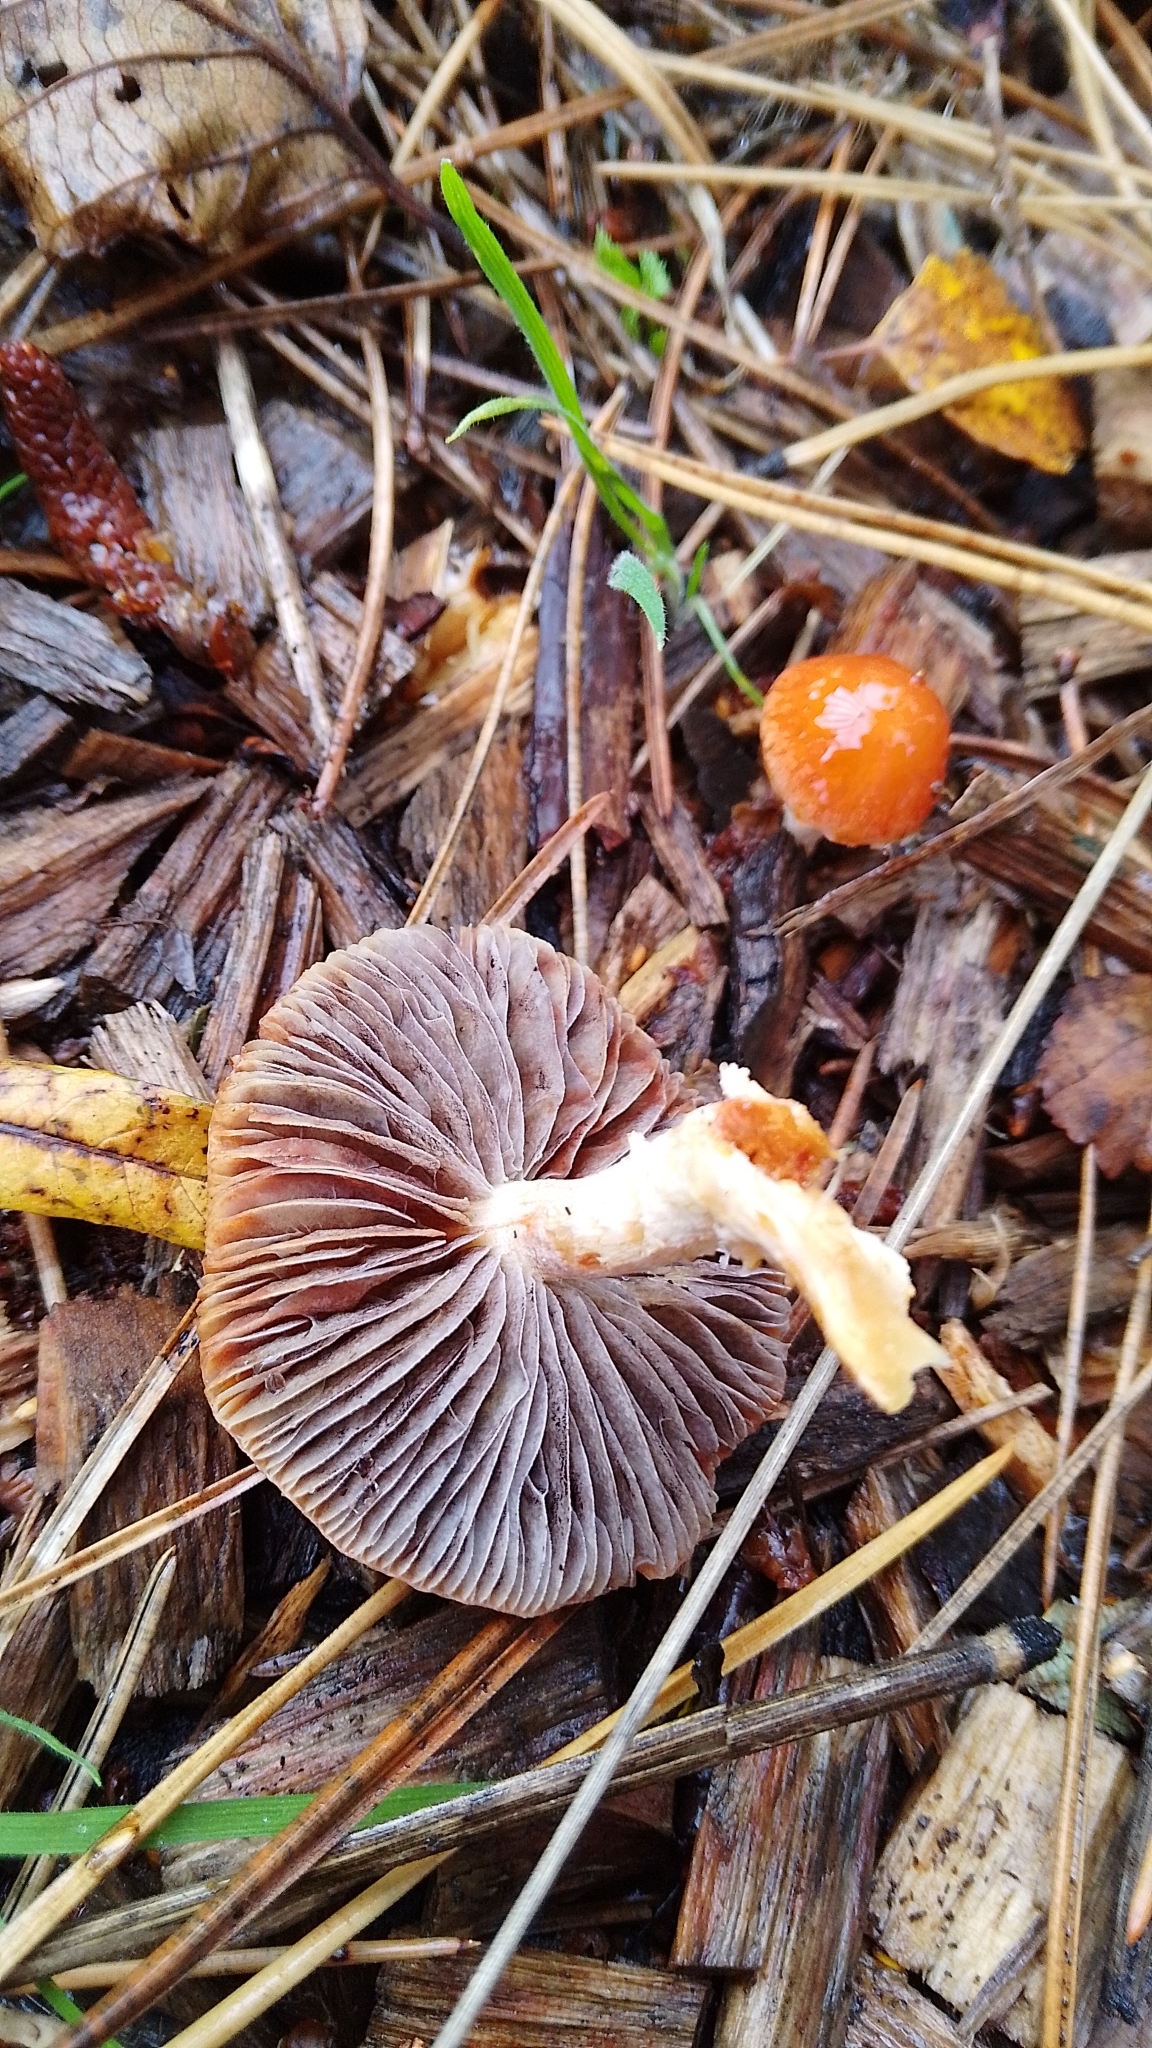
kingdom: Fungi
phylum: Basidiomycota
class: Agaricomycetes
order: Agaricales
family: Strophariaceae
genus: Leratiomyces
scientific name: Leratiomyces ceres
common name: Redlead roundhead
